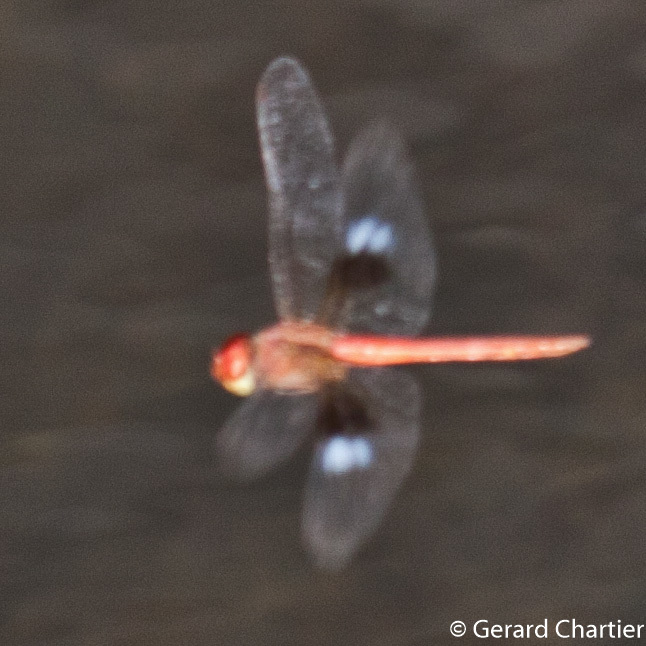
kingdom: Animalia
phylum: Arthropoda
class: Insecta
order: Odonata
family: Libellulidae
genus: Tholymis
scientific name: Tholymis tillarga
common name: Coral-tailed cloud wing
